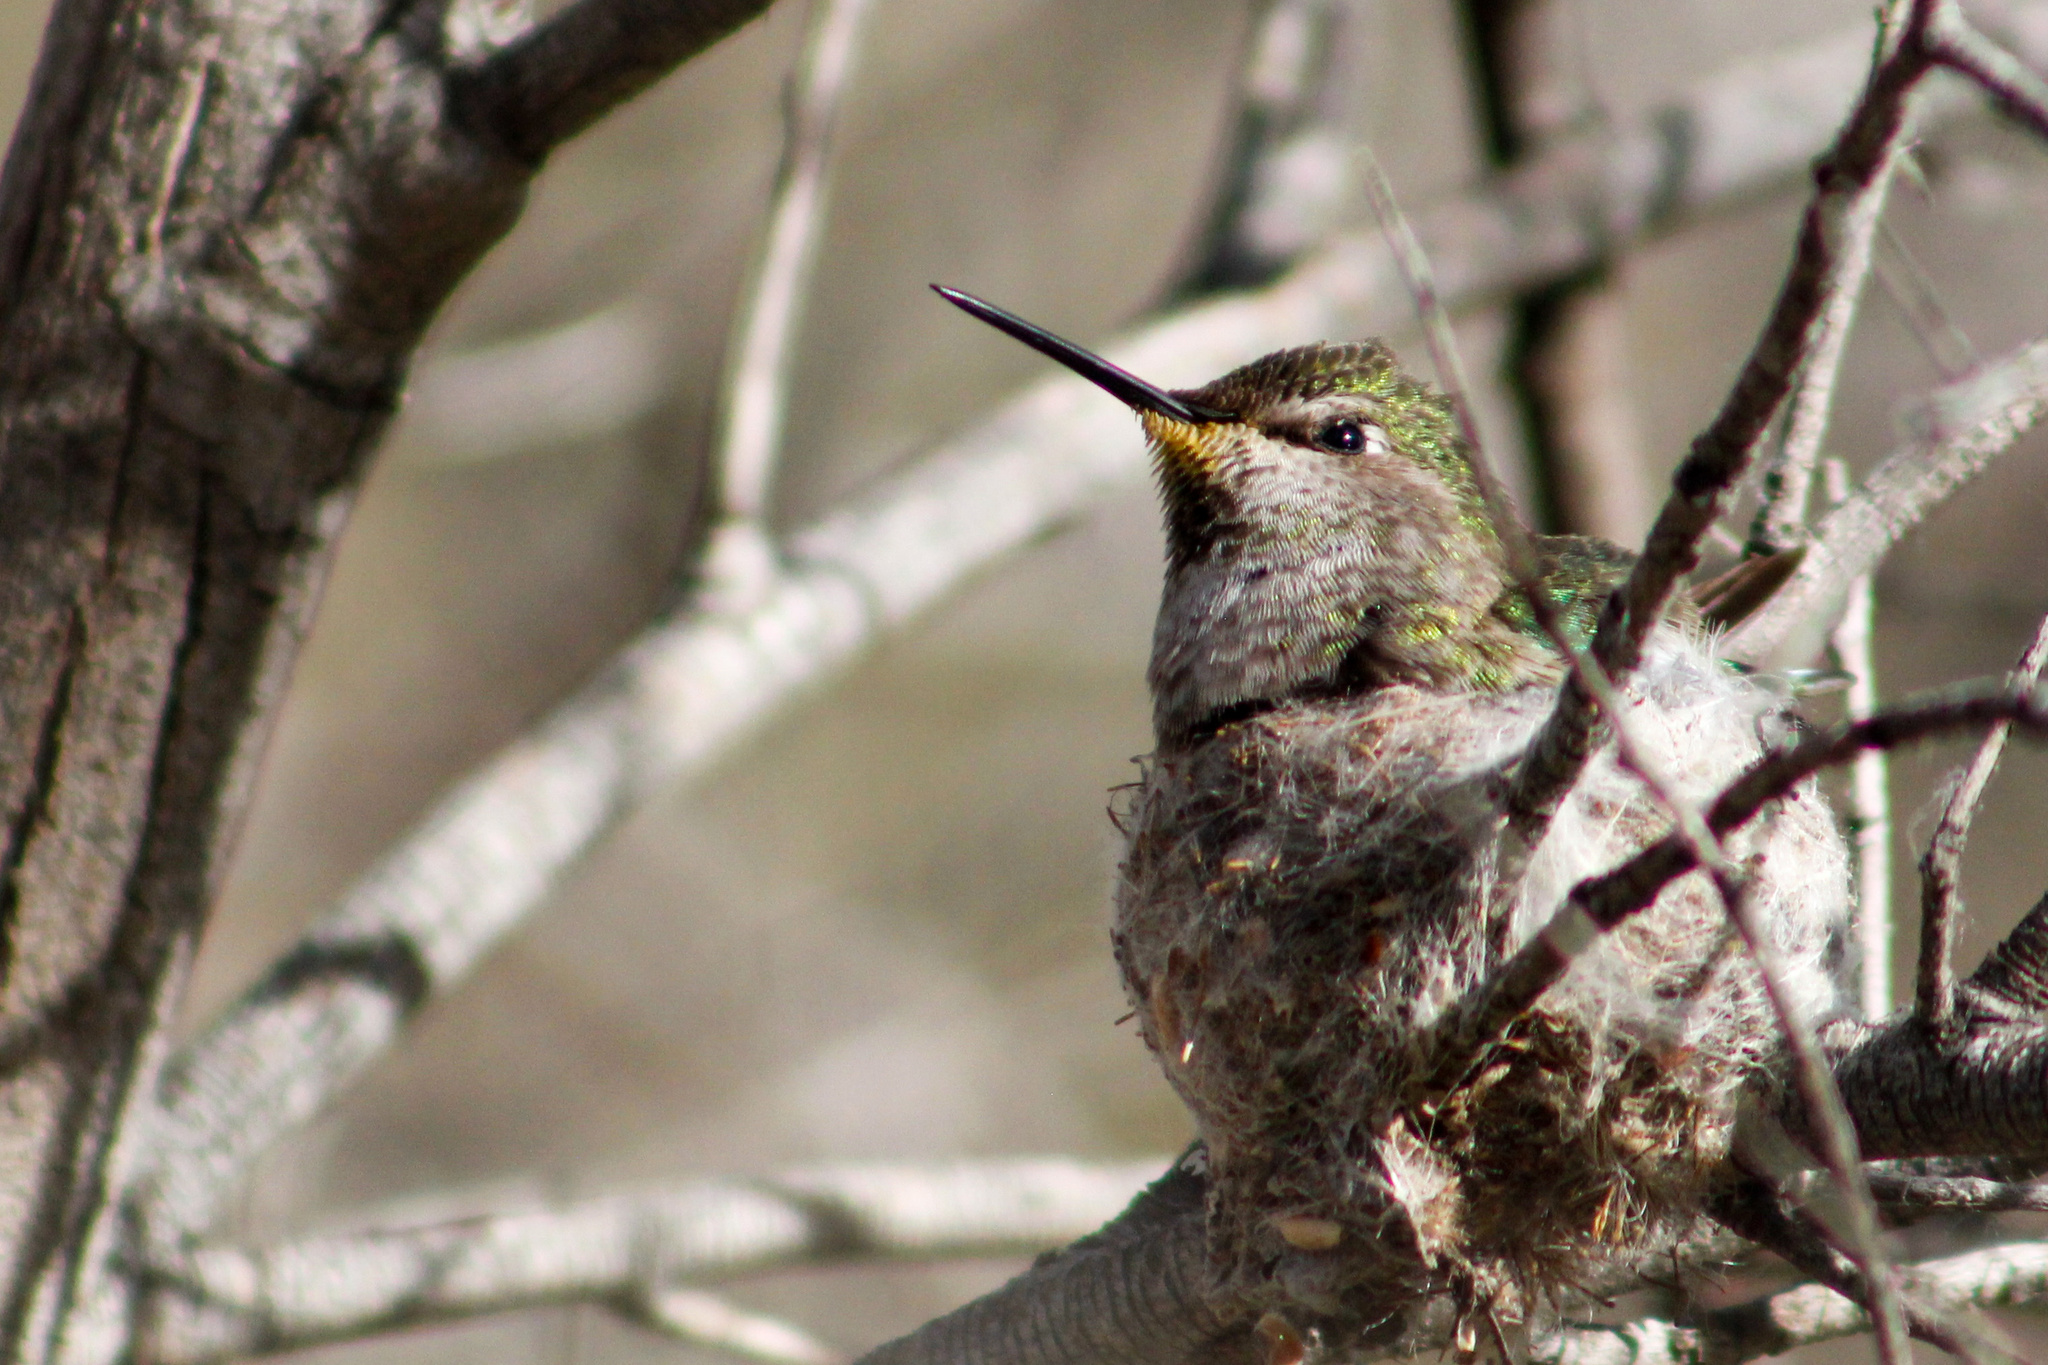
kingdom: Animalia
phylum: Chordata
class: Aves
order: Apodiformes
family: Trochilidae
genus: Calypte
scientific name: Calypte anna
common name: Anna's hummingbird
